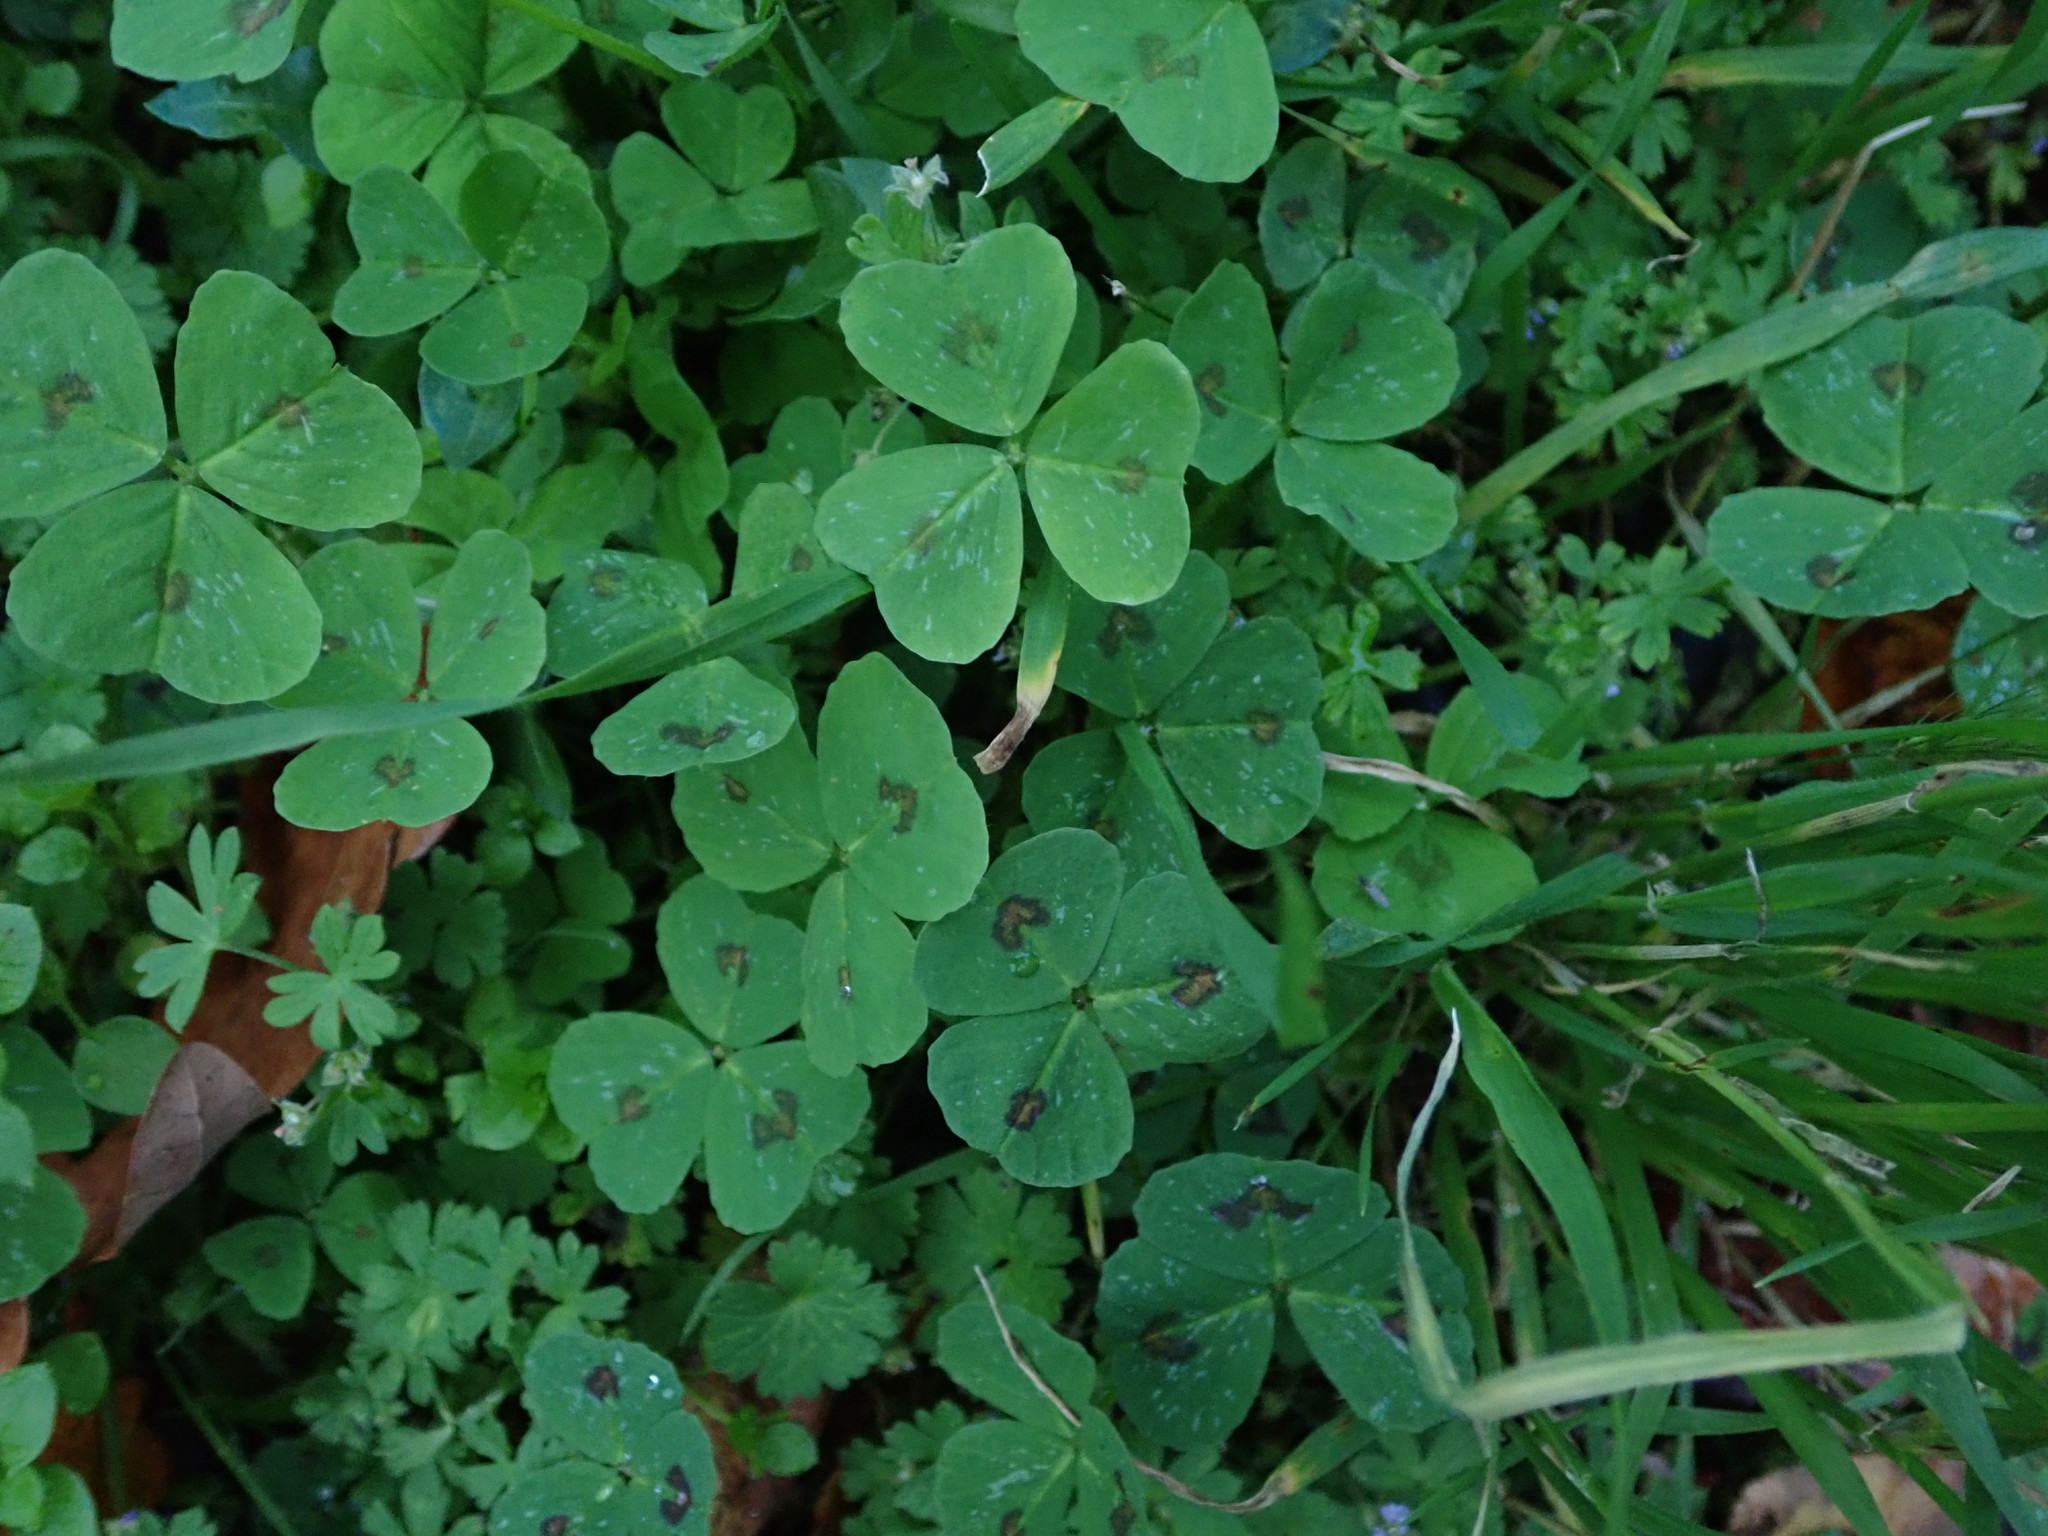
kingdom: Plantae
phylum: Tracheophyta
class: Magnoliopsida
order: Fabales
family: Fabaceae
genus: Medicago
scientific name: Medicago arabica
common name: Spotted medick
